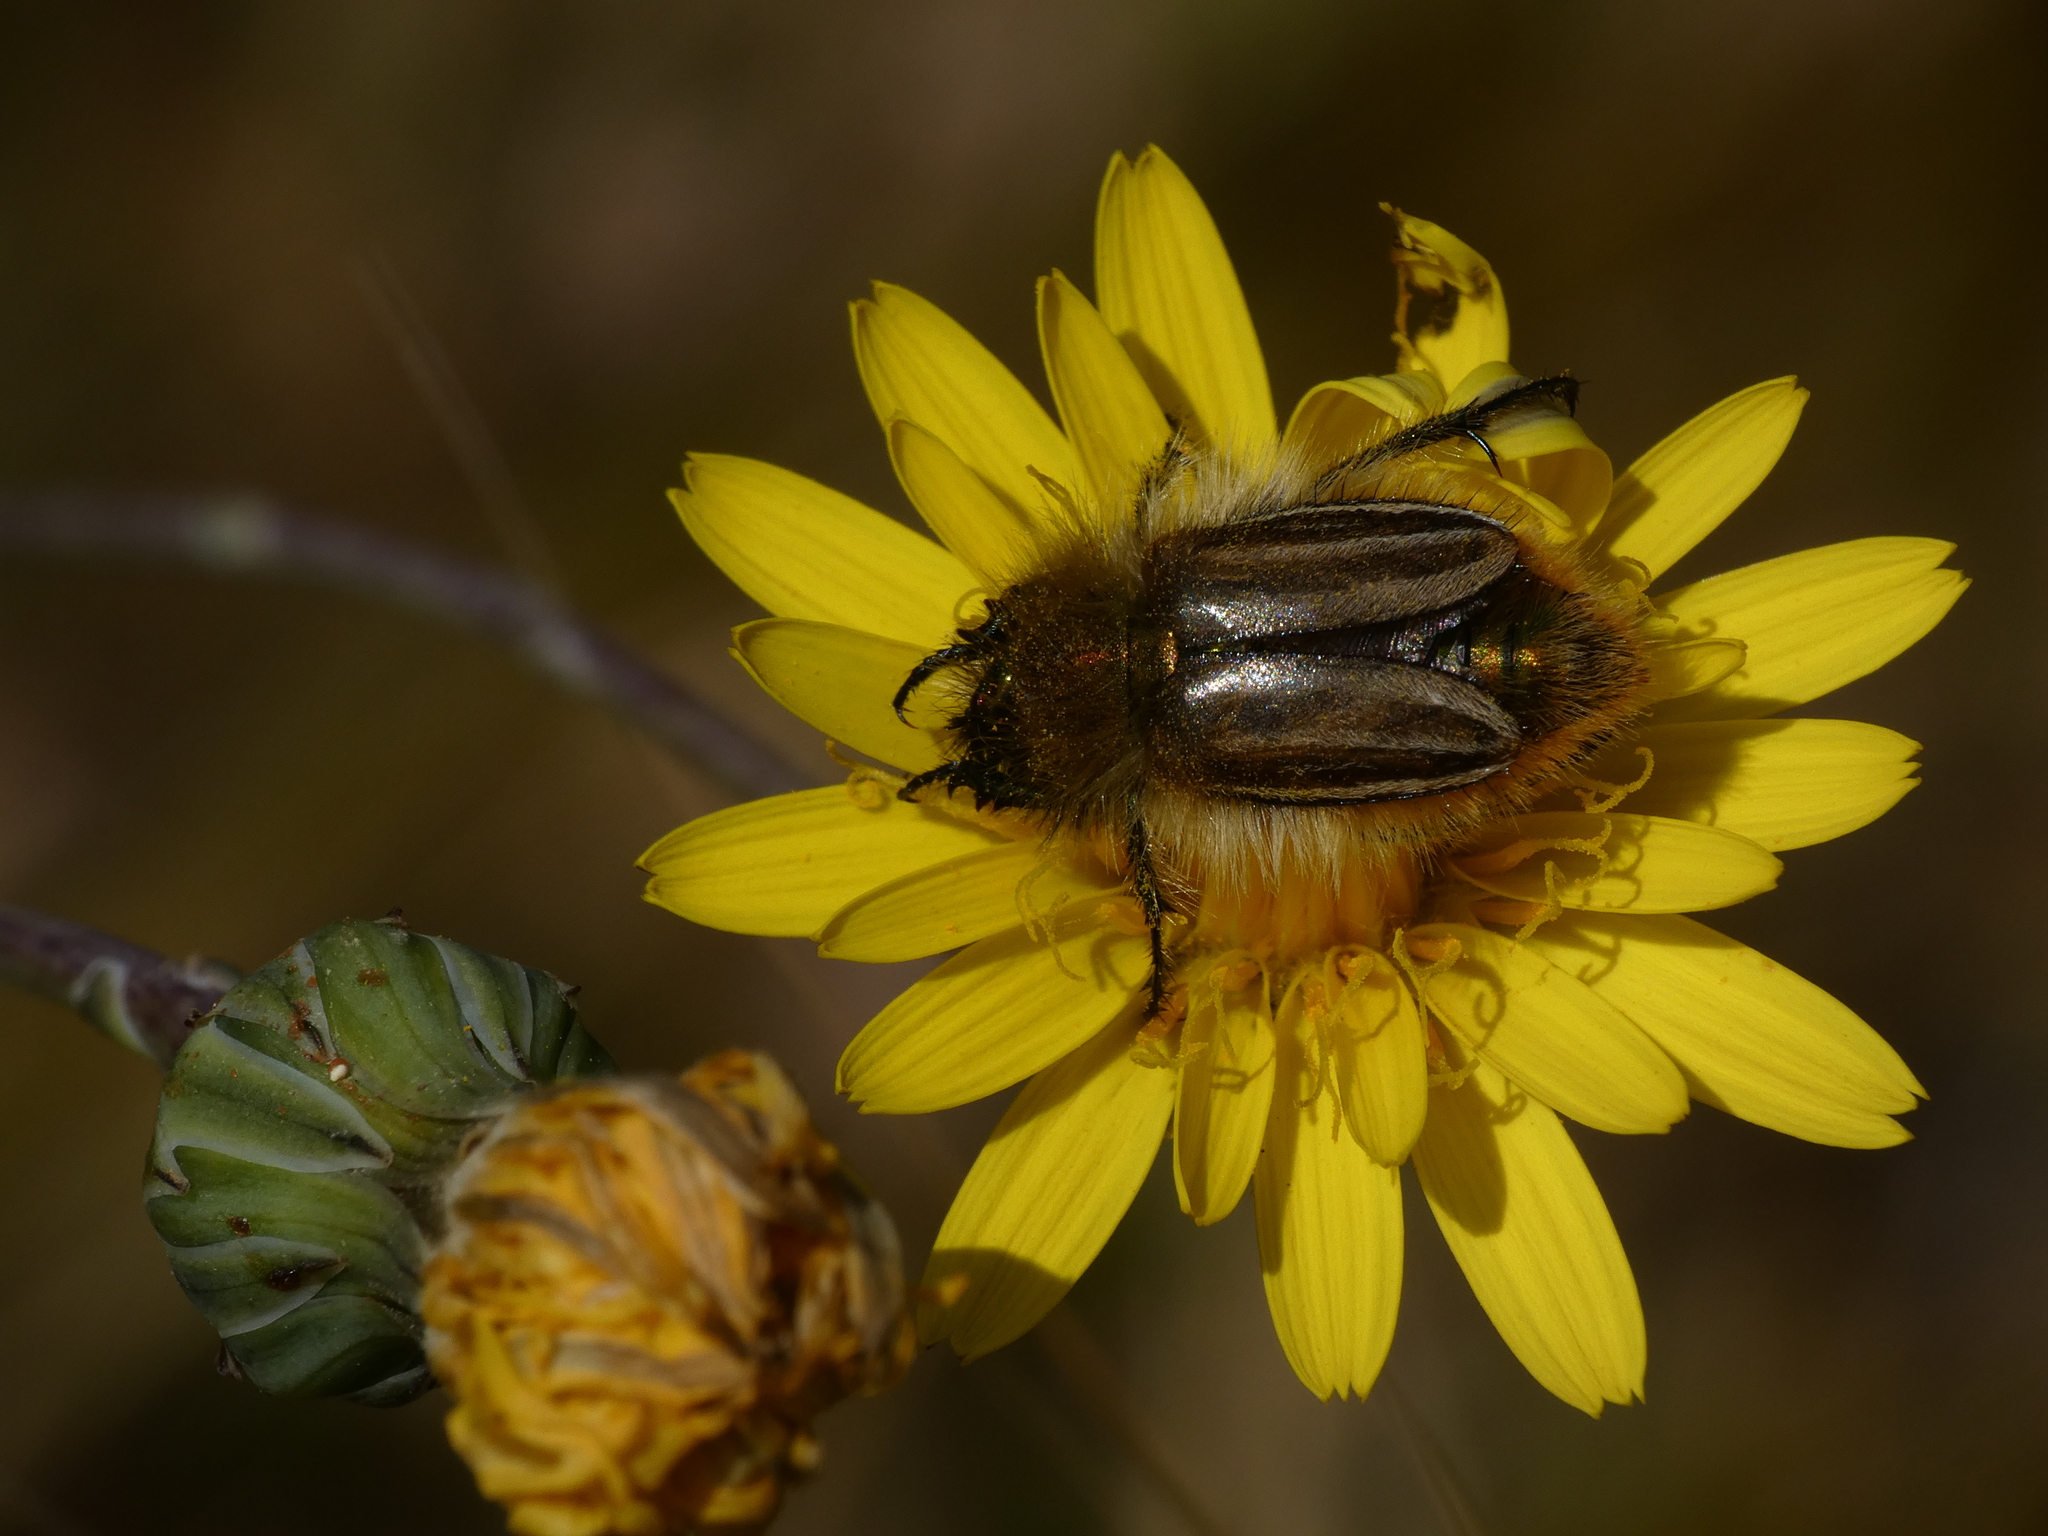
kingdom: Animalia
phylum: Arthropoda
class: Insecta
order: Coleoptera
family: Glaphyridae
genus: Eulasia
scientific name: Eulasia pareyssei
